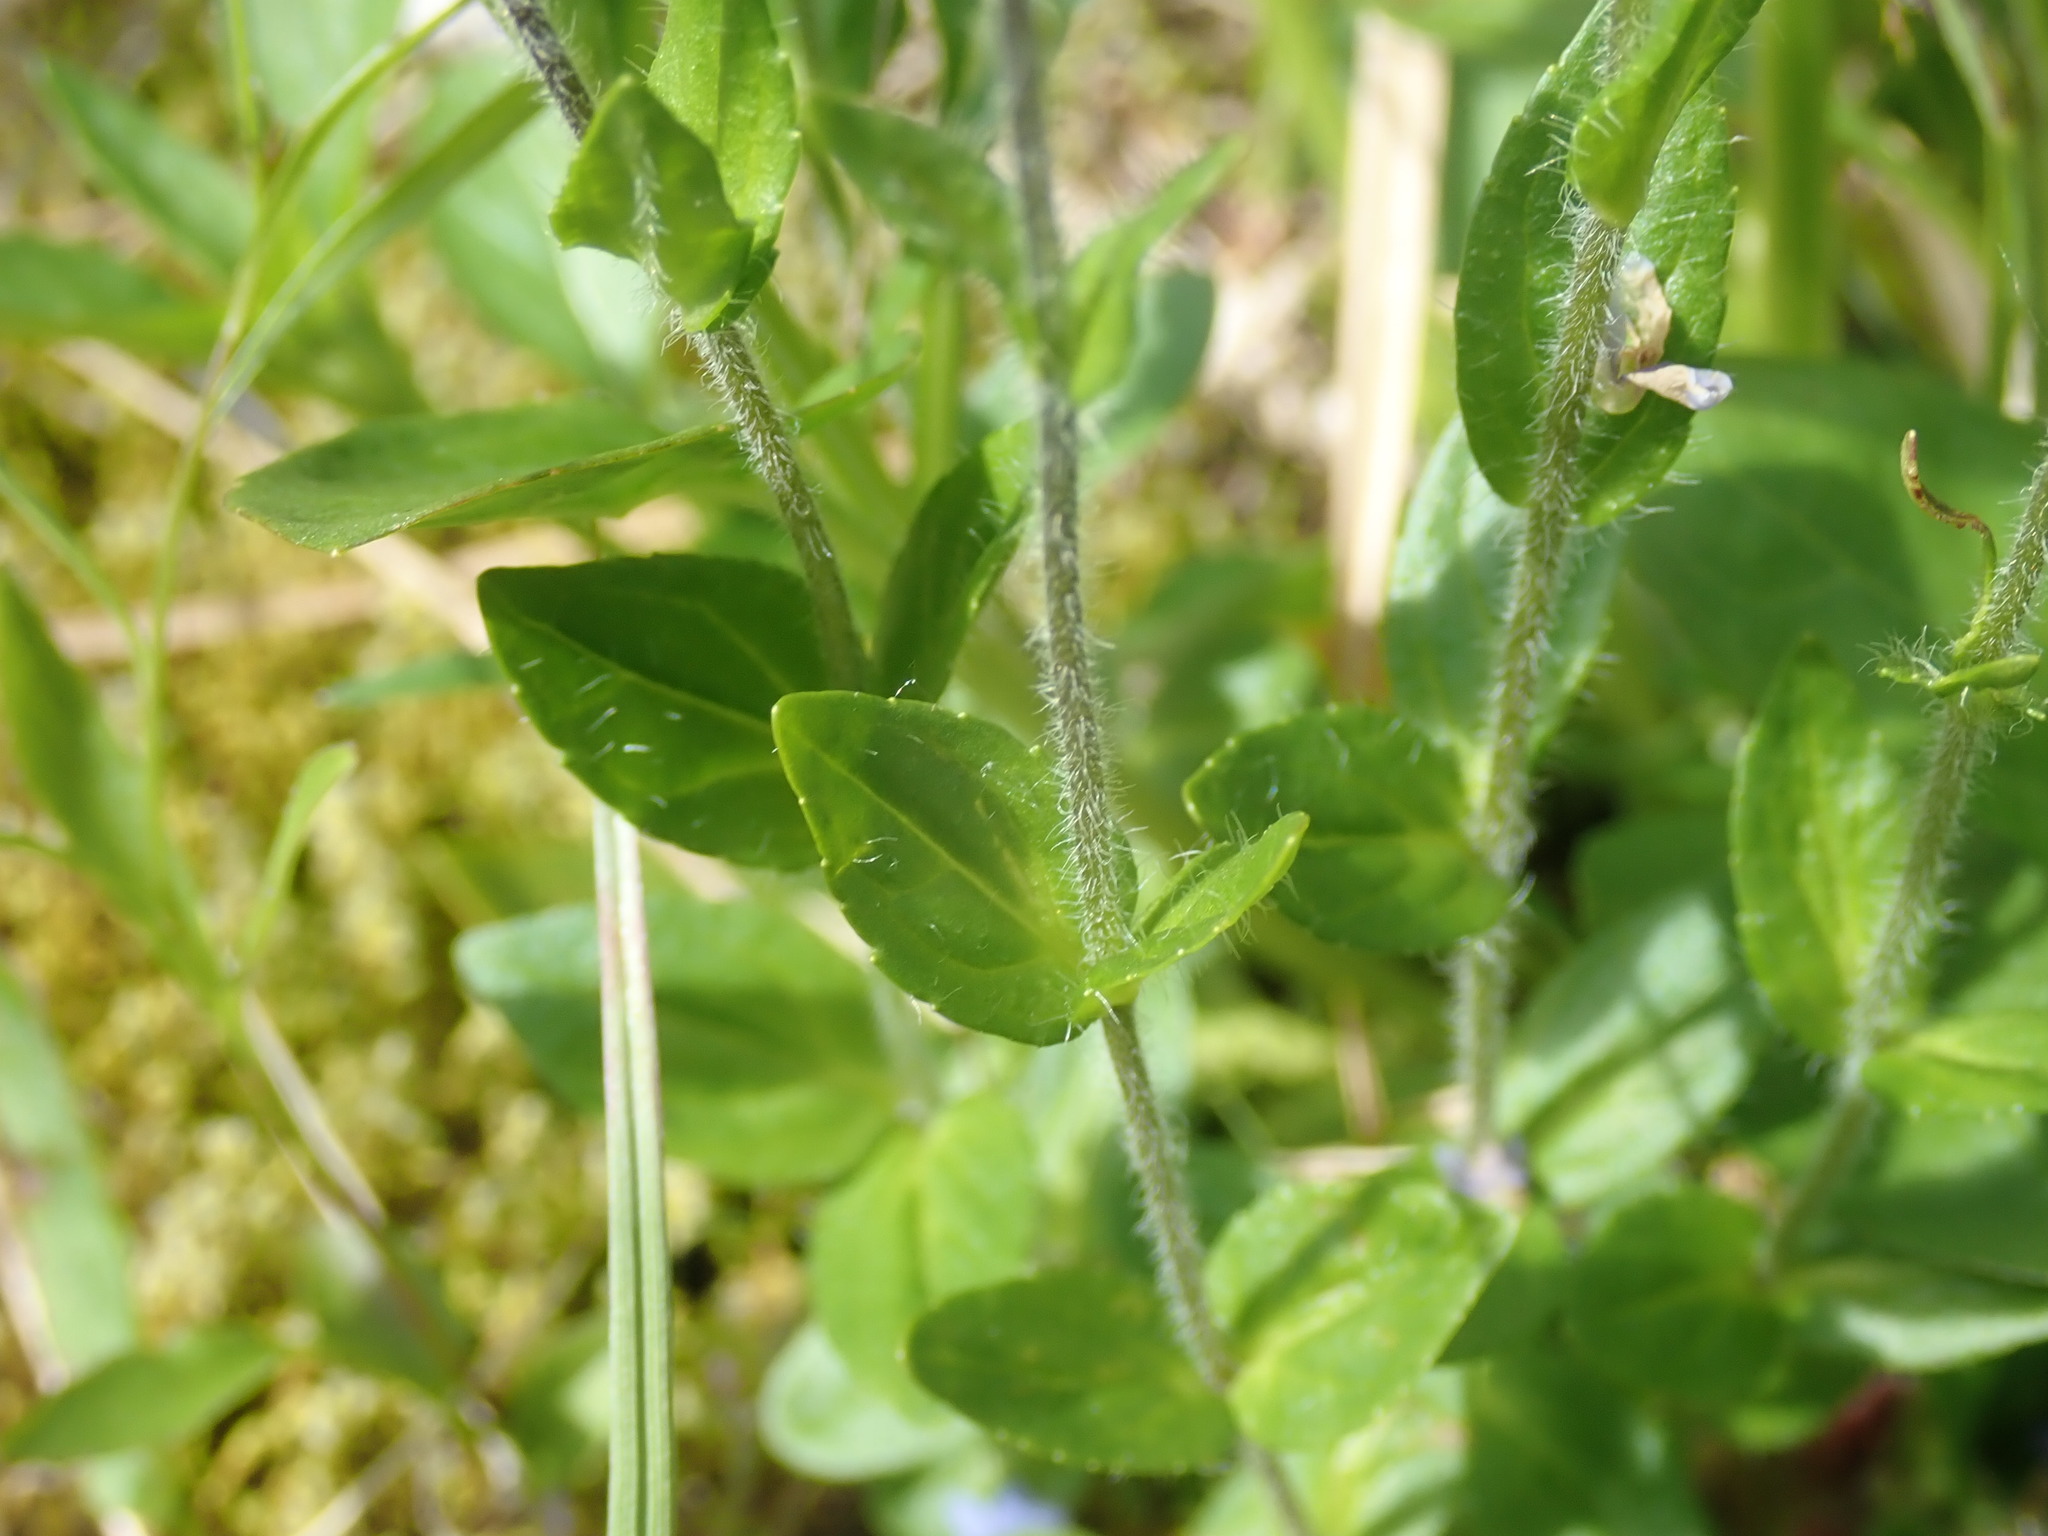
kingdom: Plantae
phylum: Tracheophyta
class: Magnoliopsida
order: Lamiales
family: Plantaginaceae
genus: Veronica
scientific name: Veronica wormskjoldii
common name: American alpine speedwell
